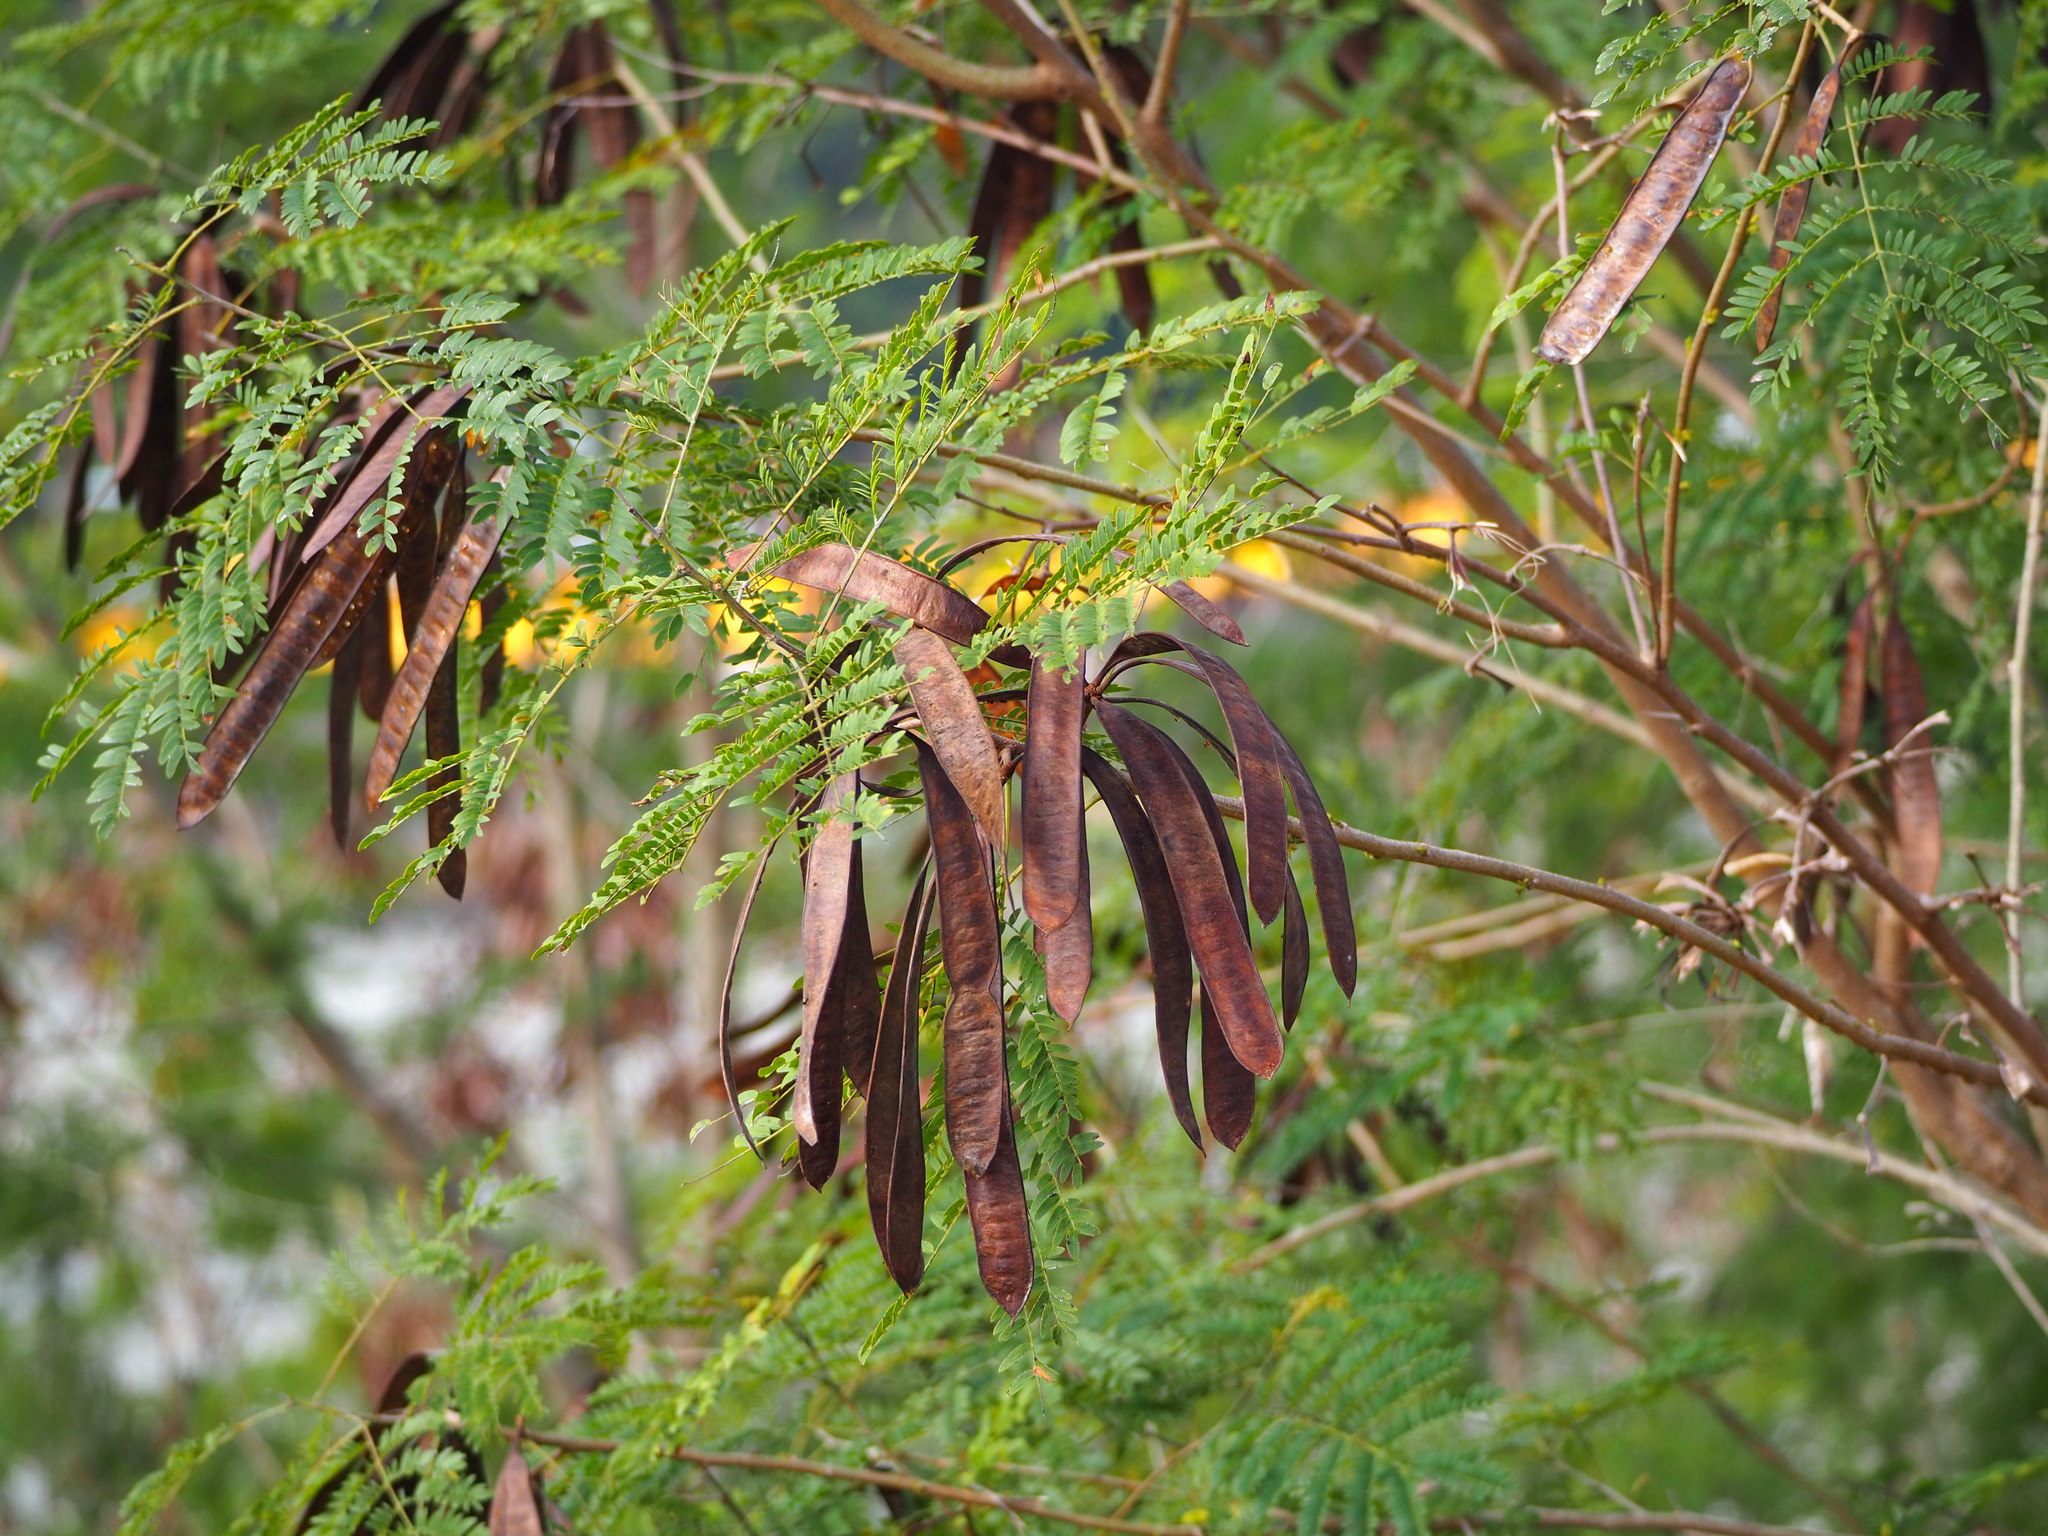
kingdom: Plantae
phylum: Tracheophyta
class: Magnoliopsida
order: Fabales
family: Fabaceae
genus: Leucaena
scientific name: Leucaena leucocephala
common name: White leadtree
